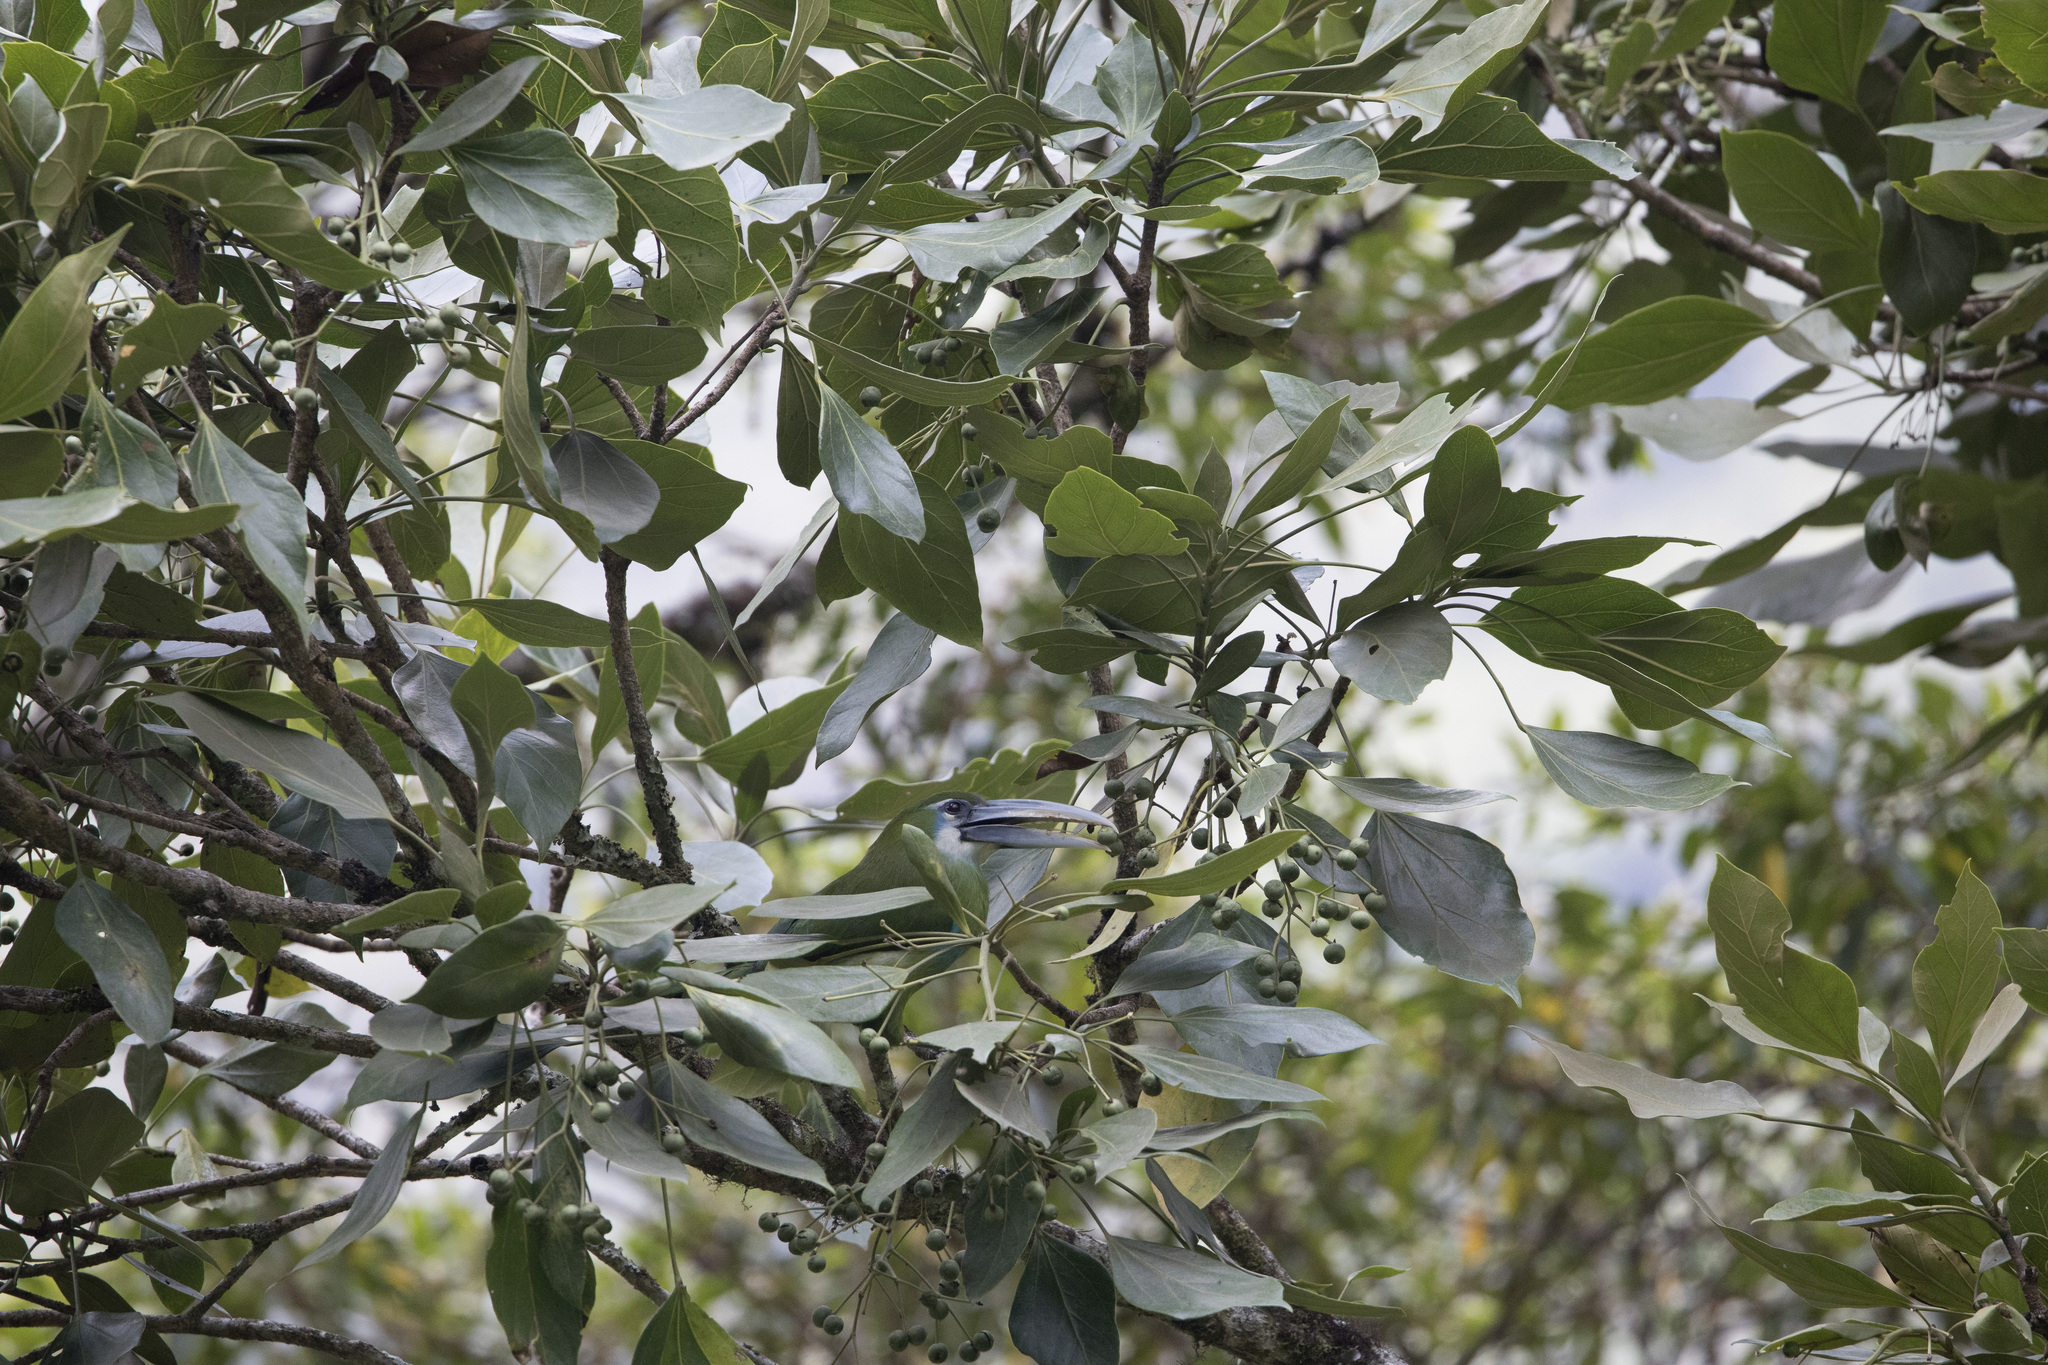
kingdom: Animalia
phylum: Chordata
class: Aves
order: Piciformes
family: Ramphastidae
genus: Aulacorhynchus
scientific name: Aulacorhynchus coeruleicinctis
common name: Blue-banded toucanet
